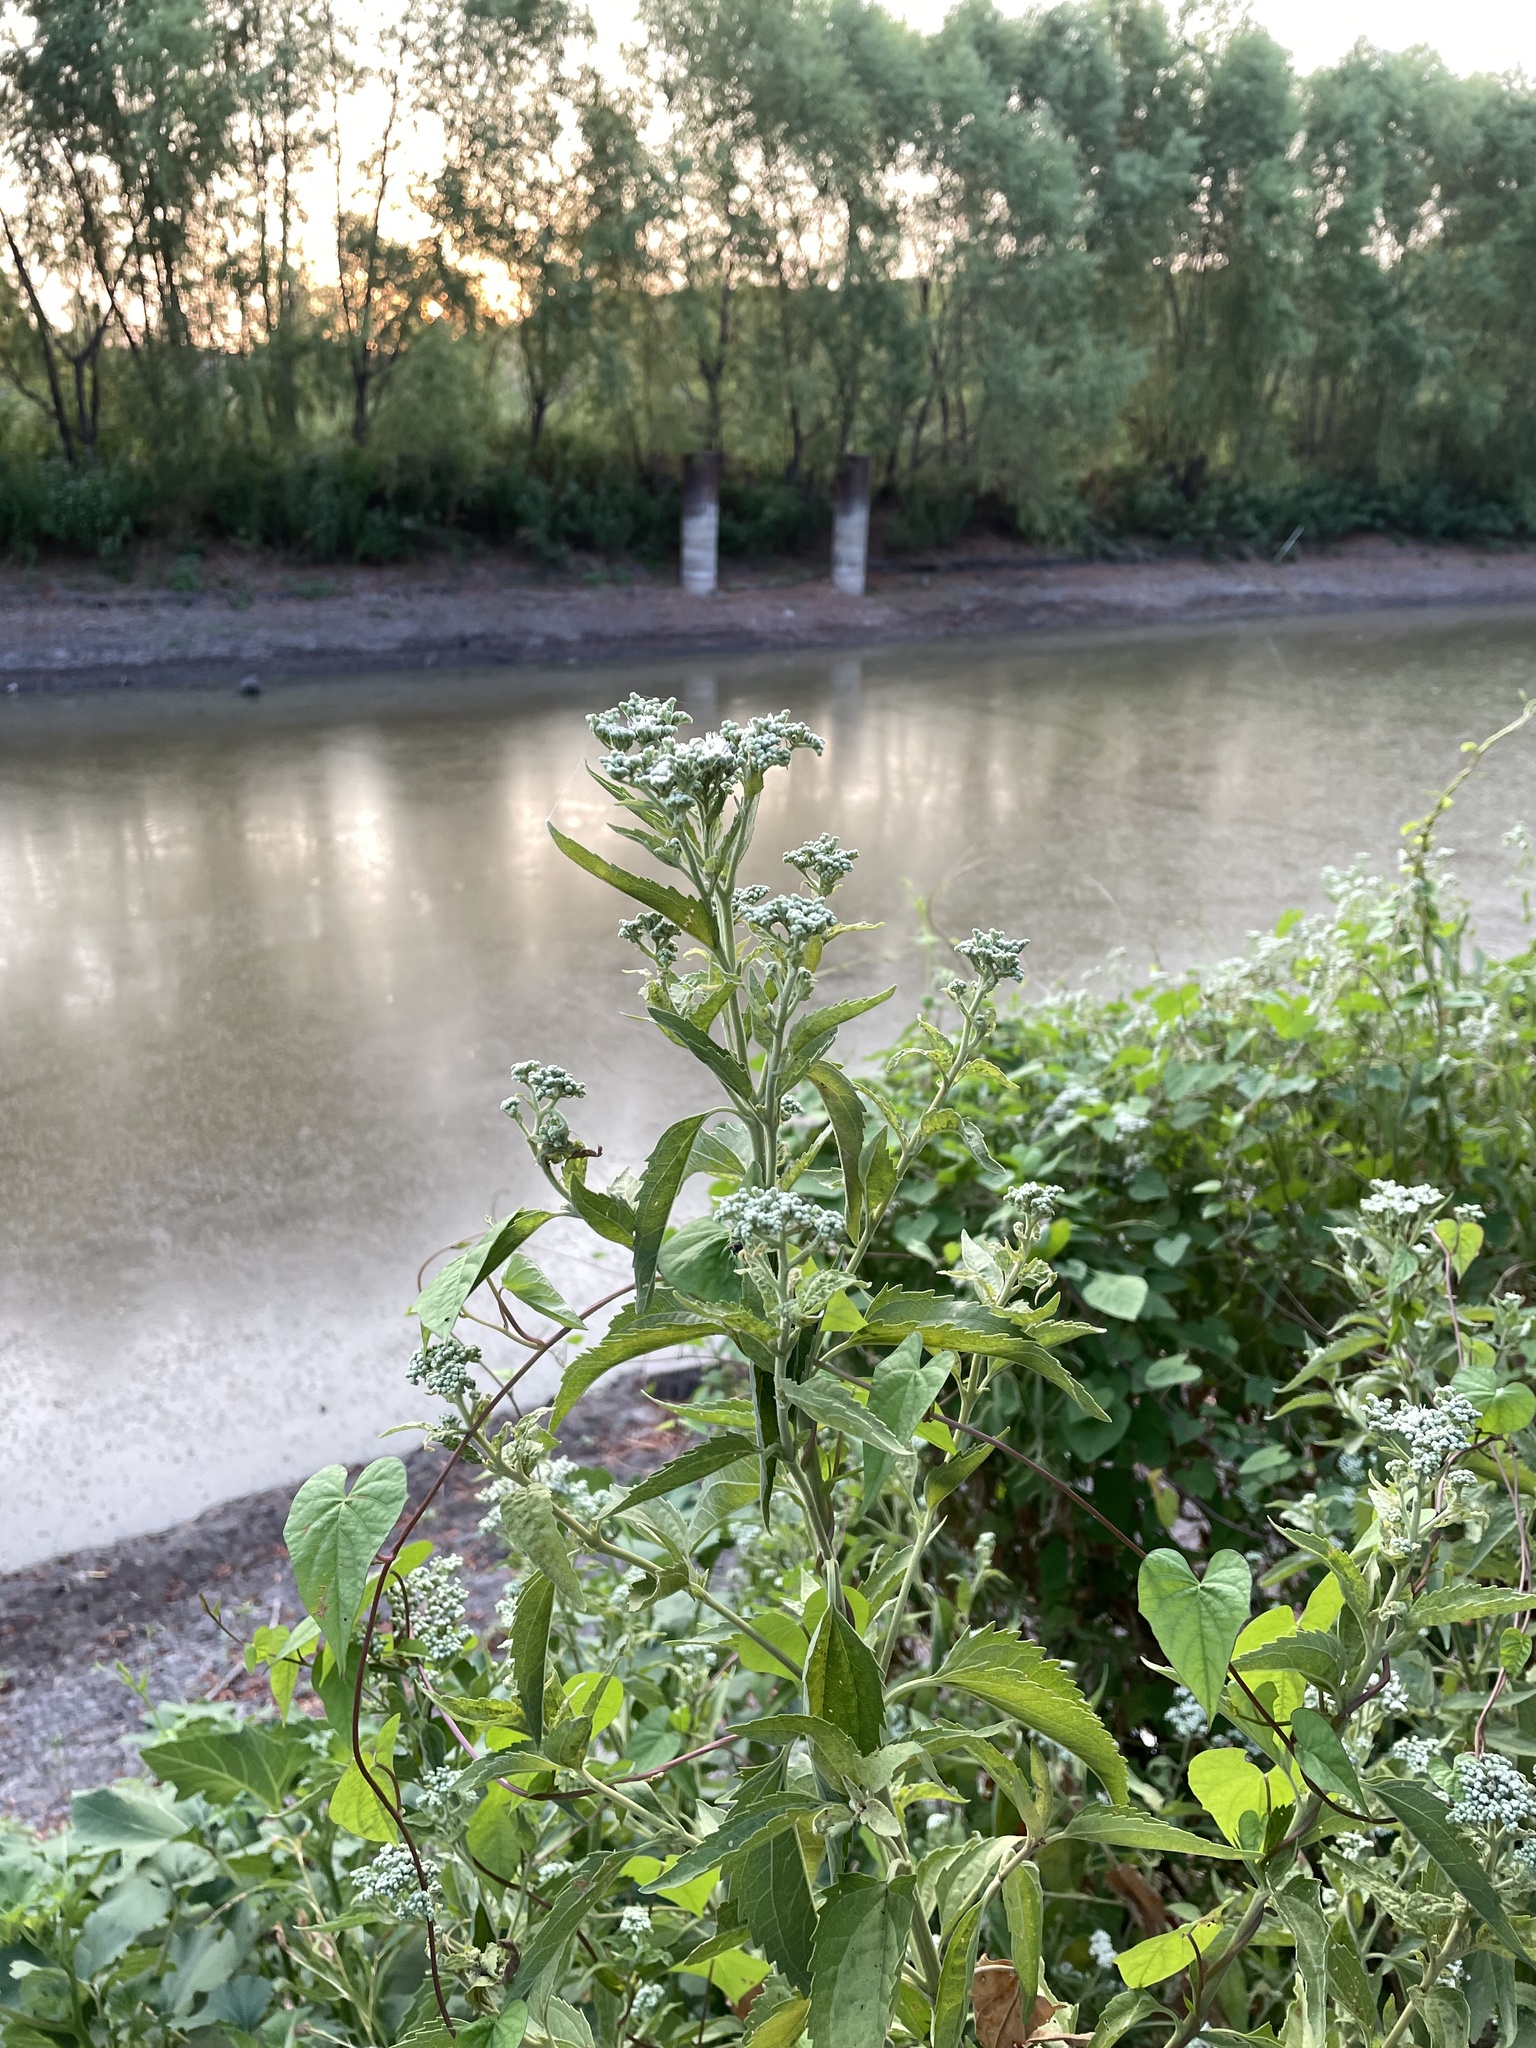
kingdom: Plantae
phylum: Tracheophyta
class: Magnoliopsida
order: Asterales
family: Asteraceae
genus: Eupatorium
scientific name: Eupatorium serotinum
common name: Late boneset
